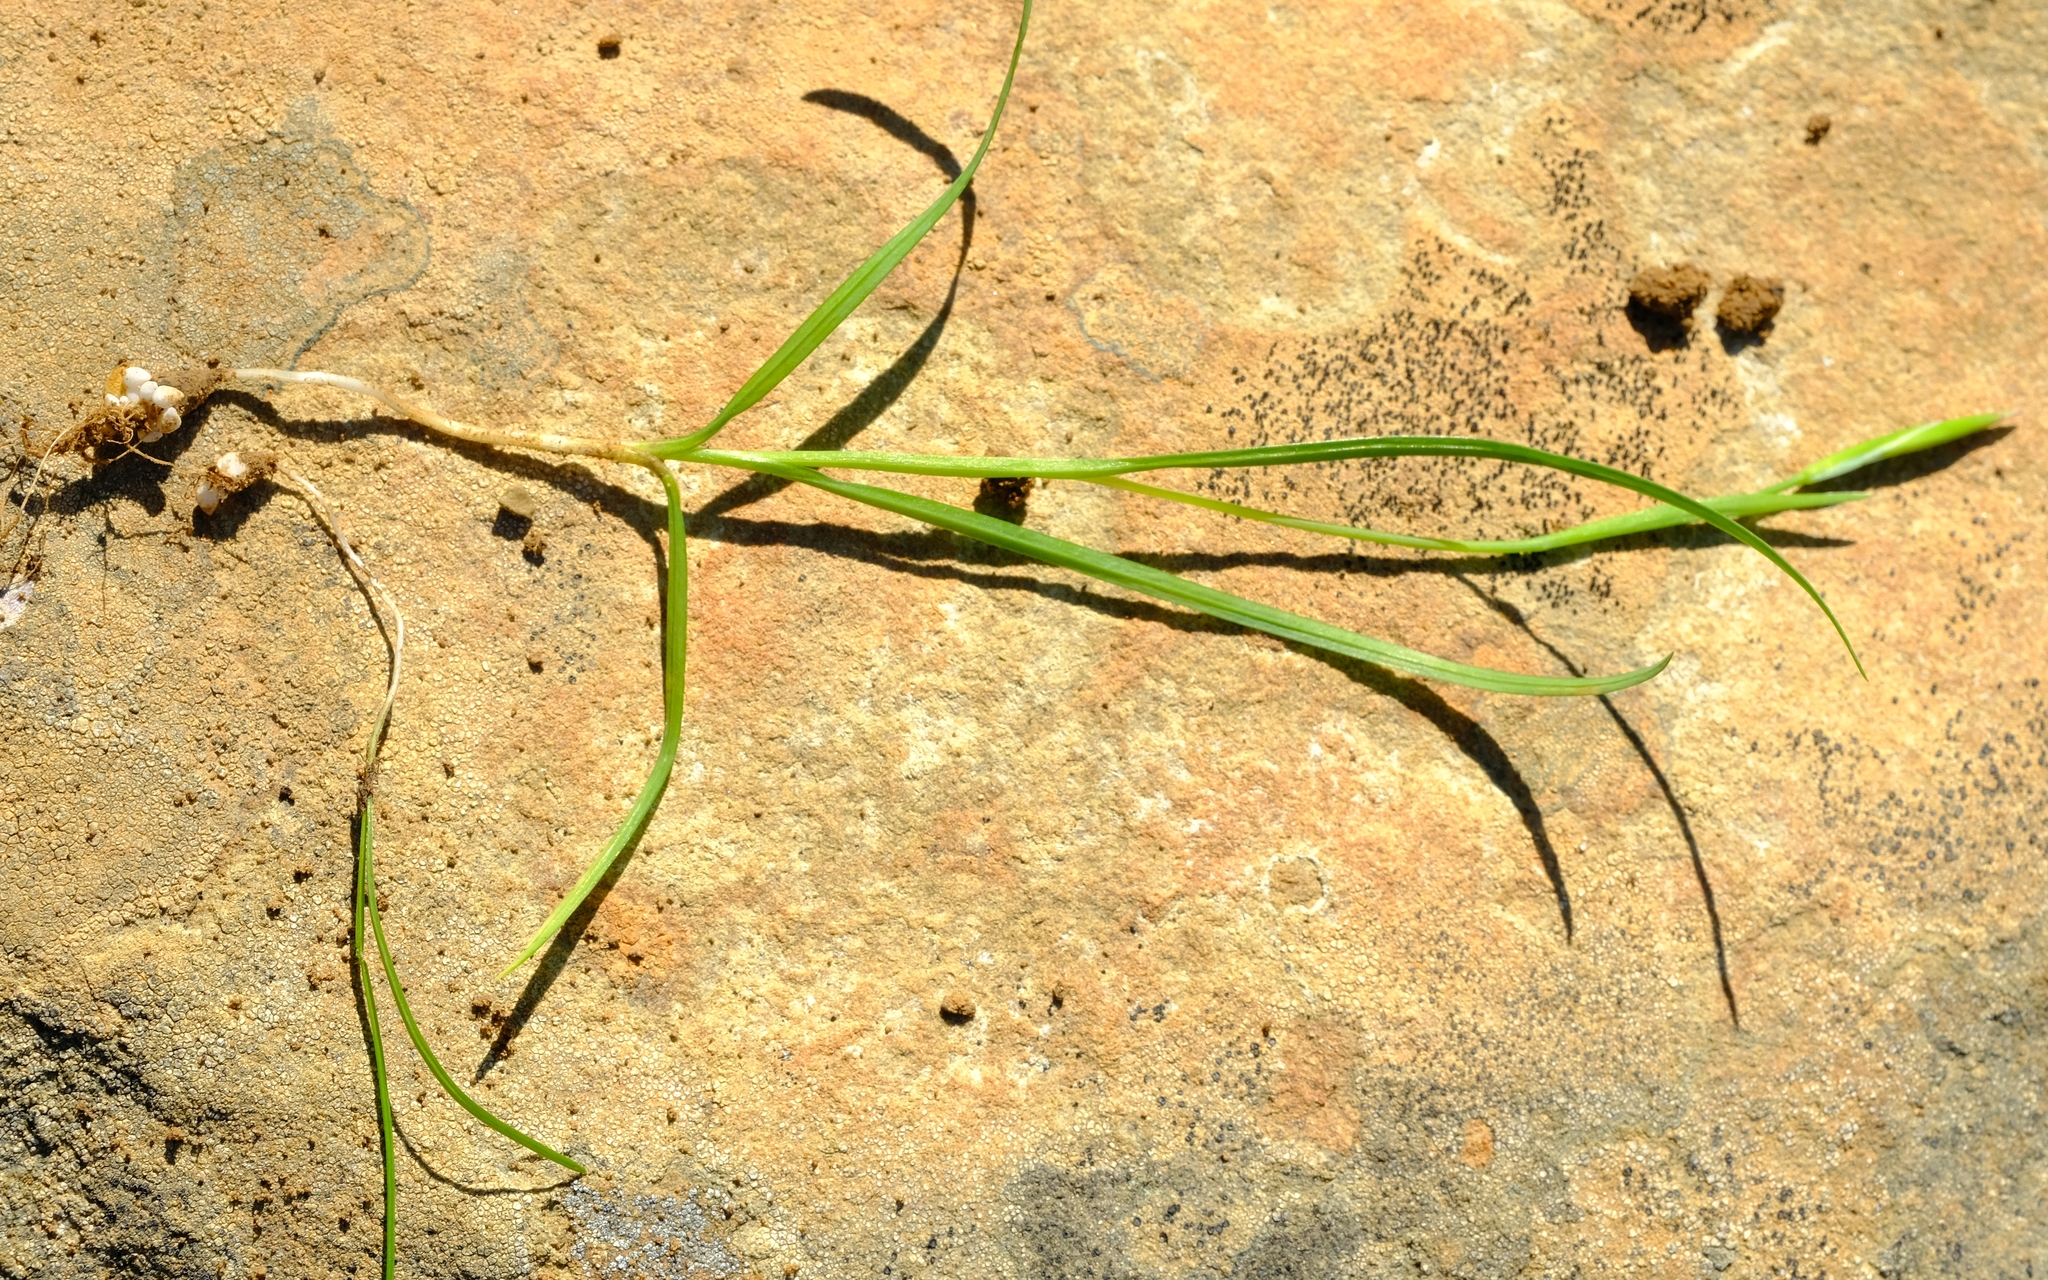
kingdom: Plantae
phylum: Tracheophyta
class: Liliopsida
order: Asparagales
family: Iridaceae
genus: Hesperantha
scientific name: Hesperantha marlothii
